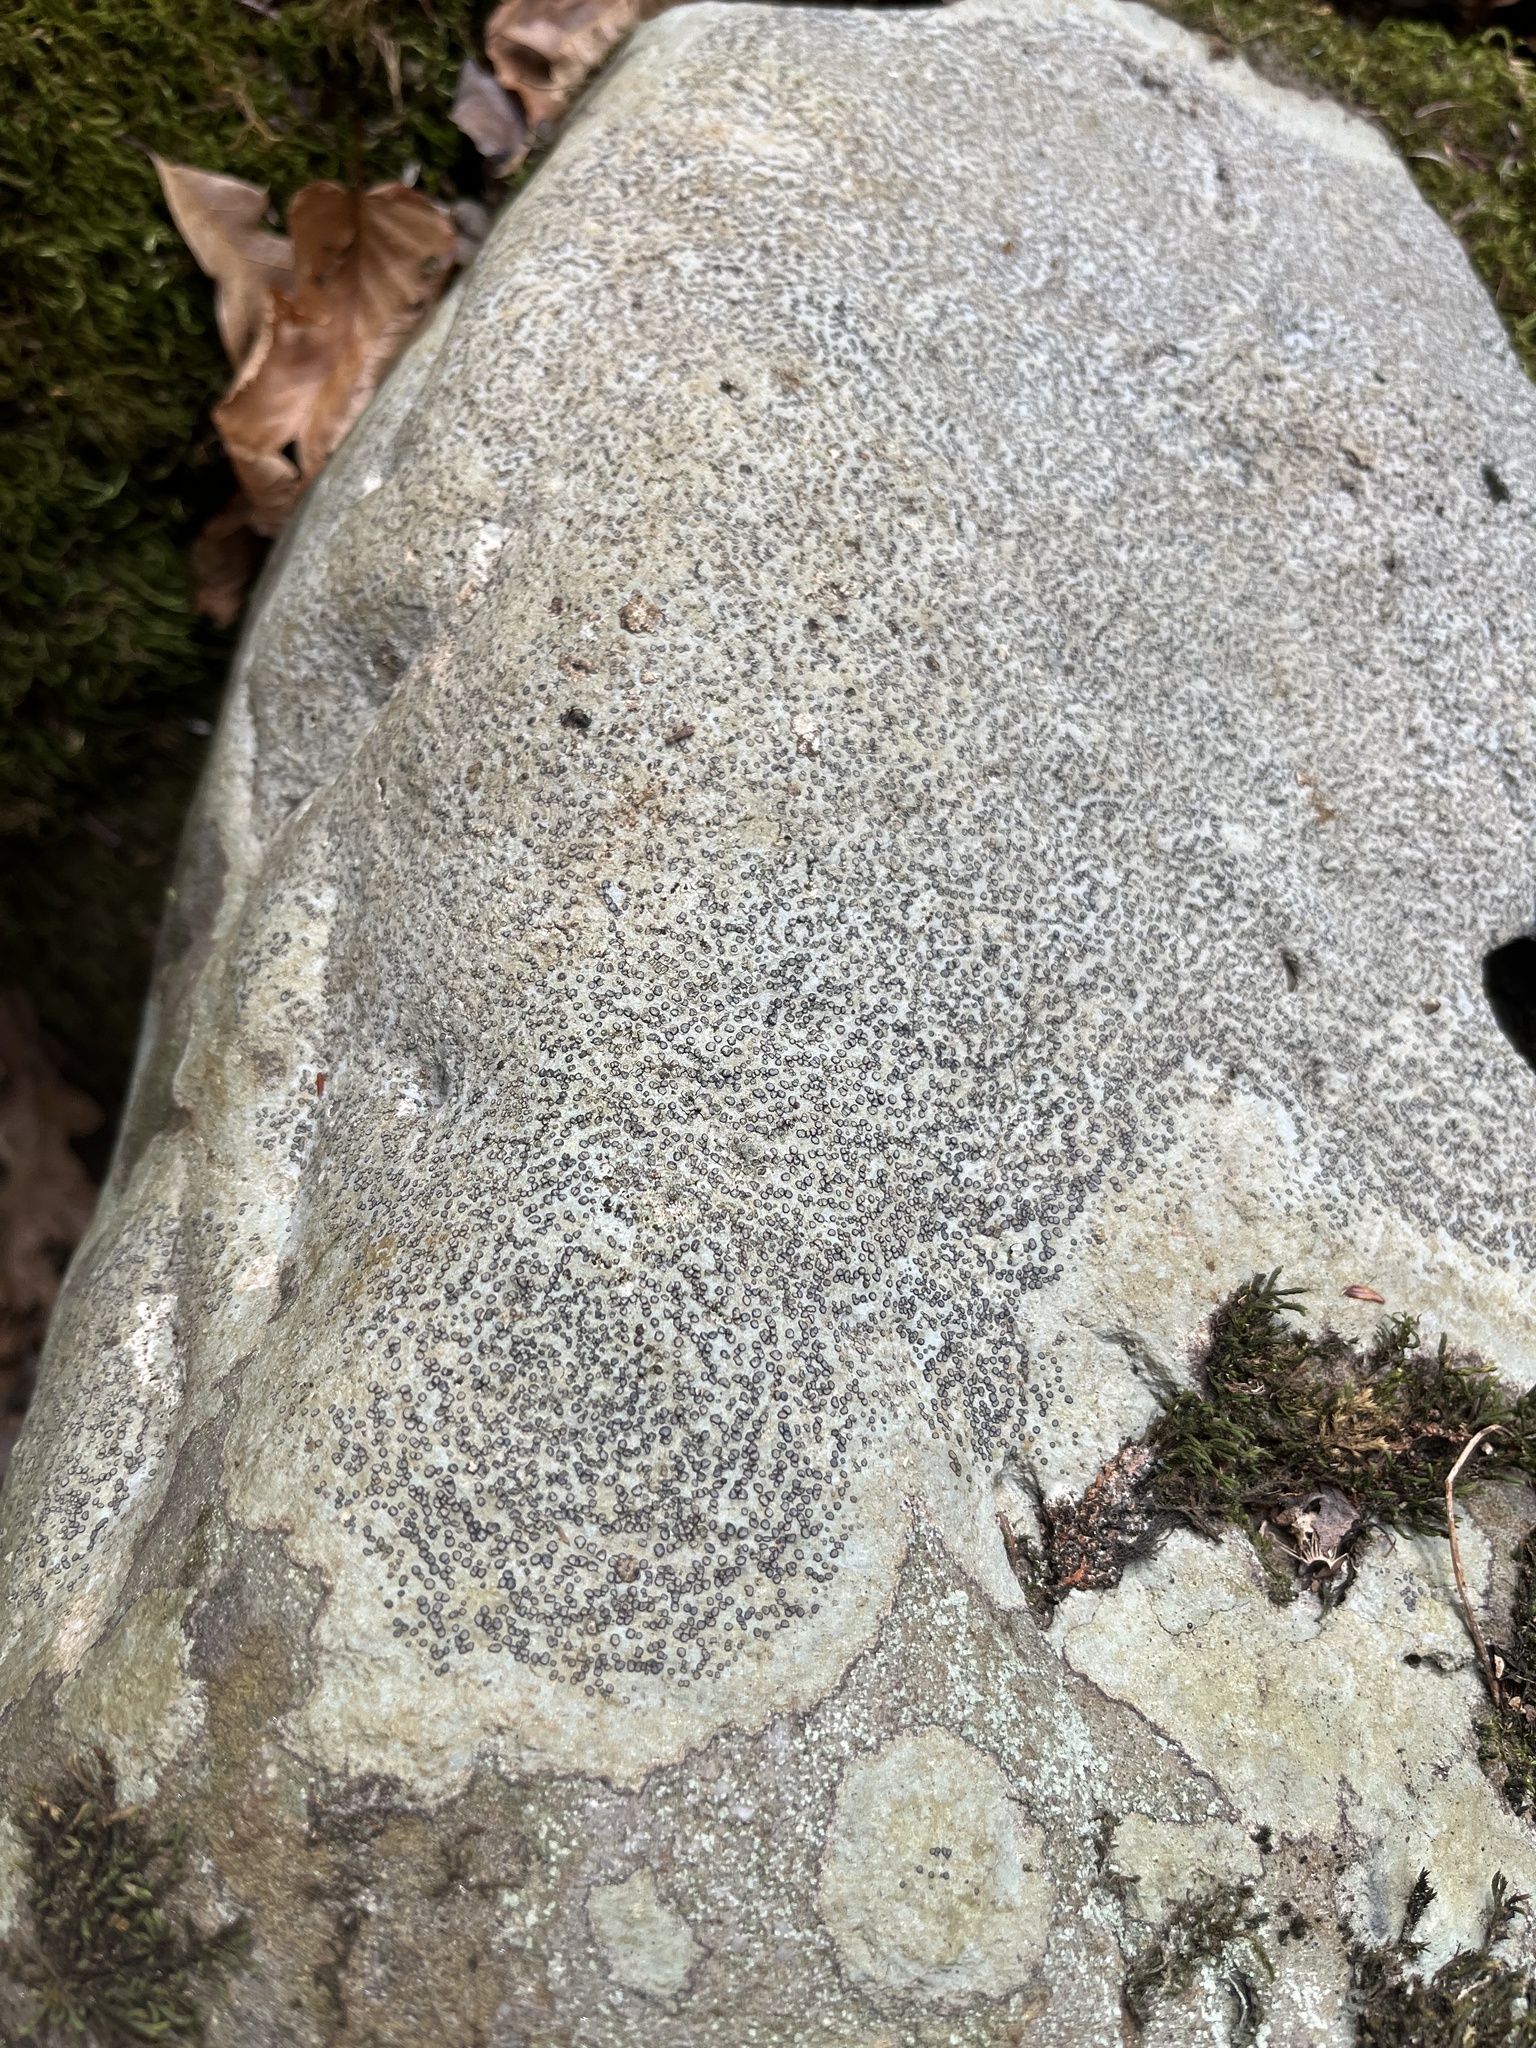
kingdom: Fungi
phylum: Ascomycota
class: Lecanoromycetes
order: Lecideales
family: Lecideaceae
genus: Porpidia
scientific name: Porpidia albocaerulescens
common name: Smokey-eyed boulder lichen
